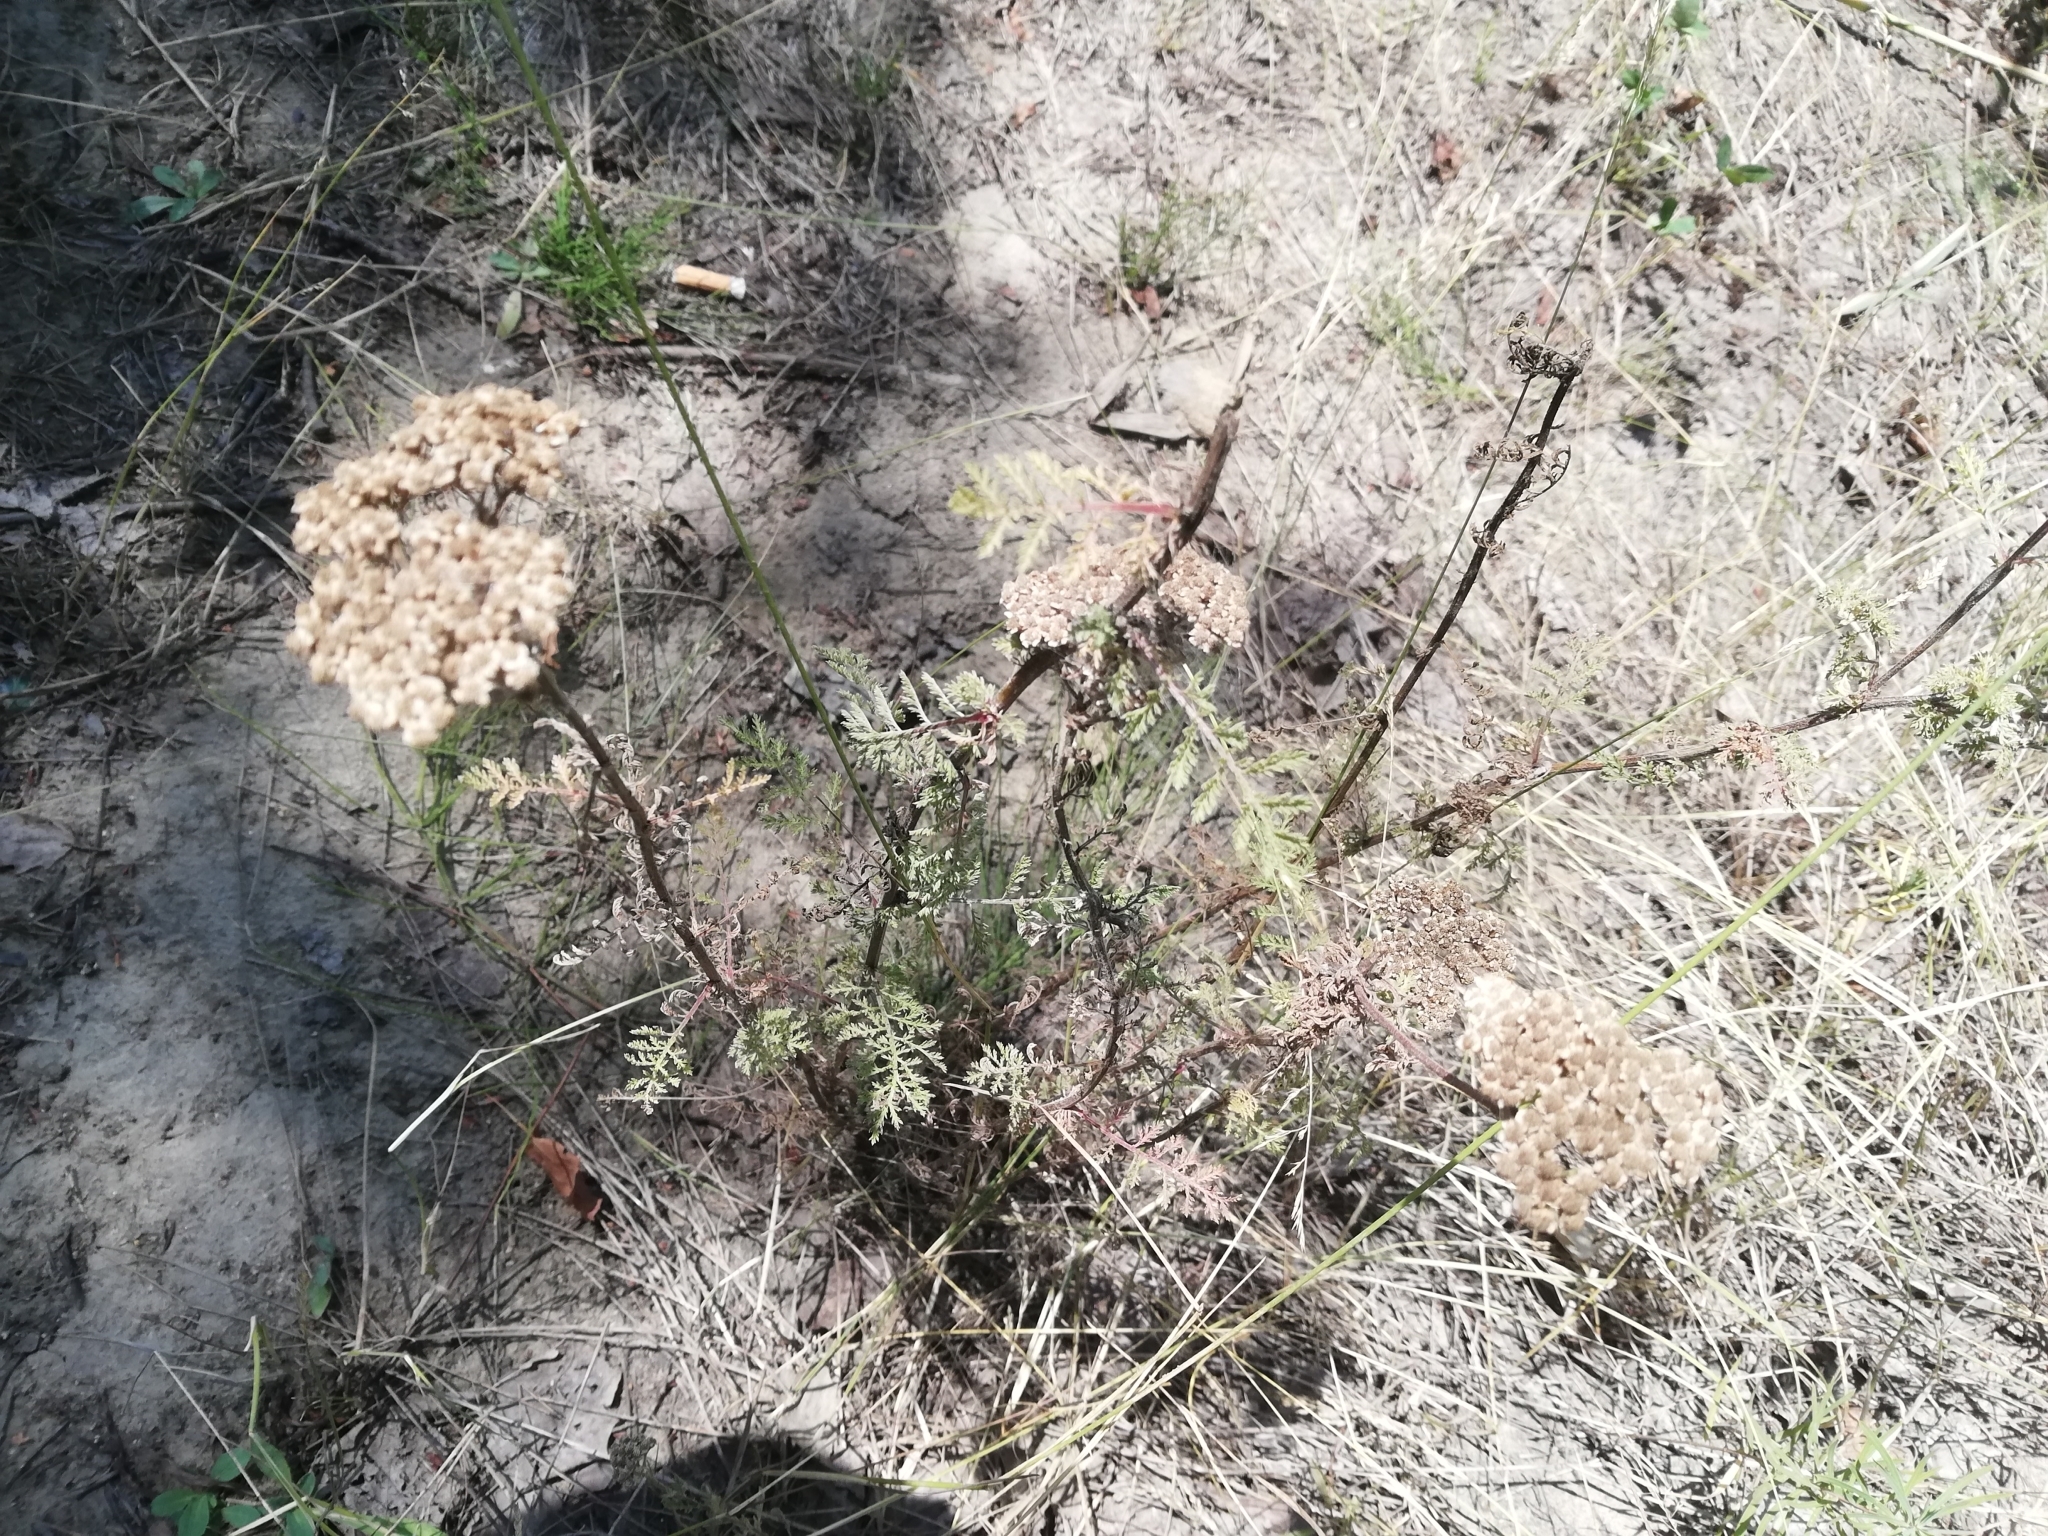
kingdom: Plantae
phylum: Tracheophyta
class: Magnoliopsida
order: Asterales
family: Asteraceae
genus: Achillea
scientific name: Achillea nobilis
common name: Noble yarrow
